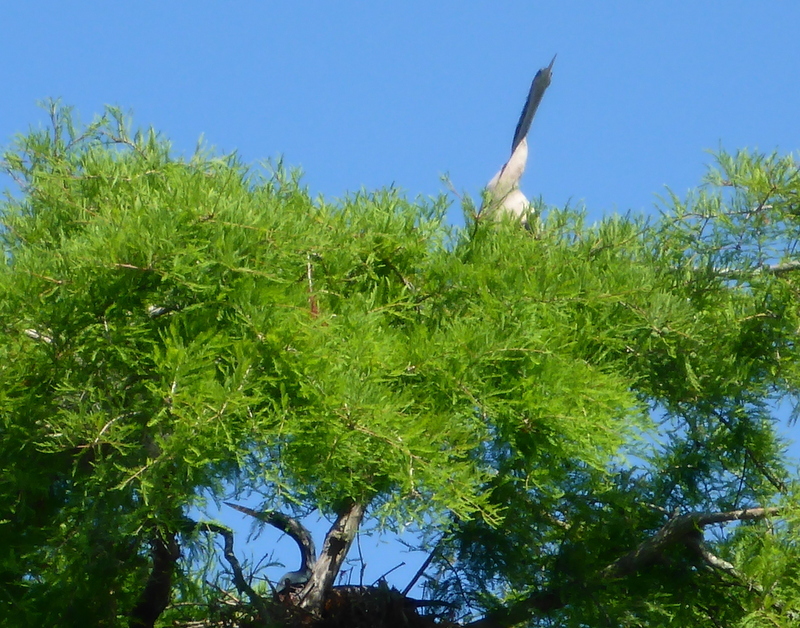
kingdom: Animalia
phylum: Chordata
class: Aves
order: Suliformes
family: Anhingidae
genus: Anhinga
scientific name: Anhinga anhinga
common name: Anhinga
